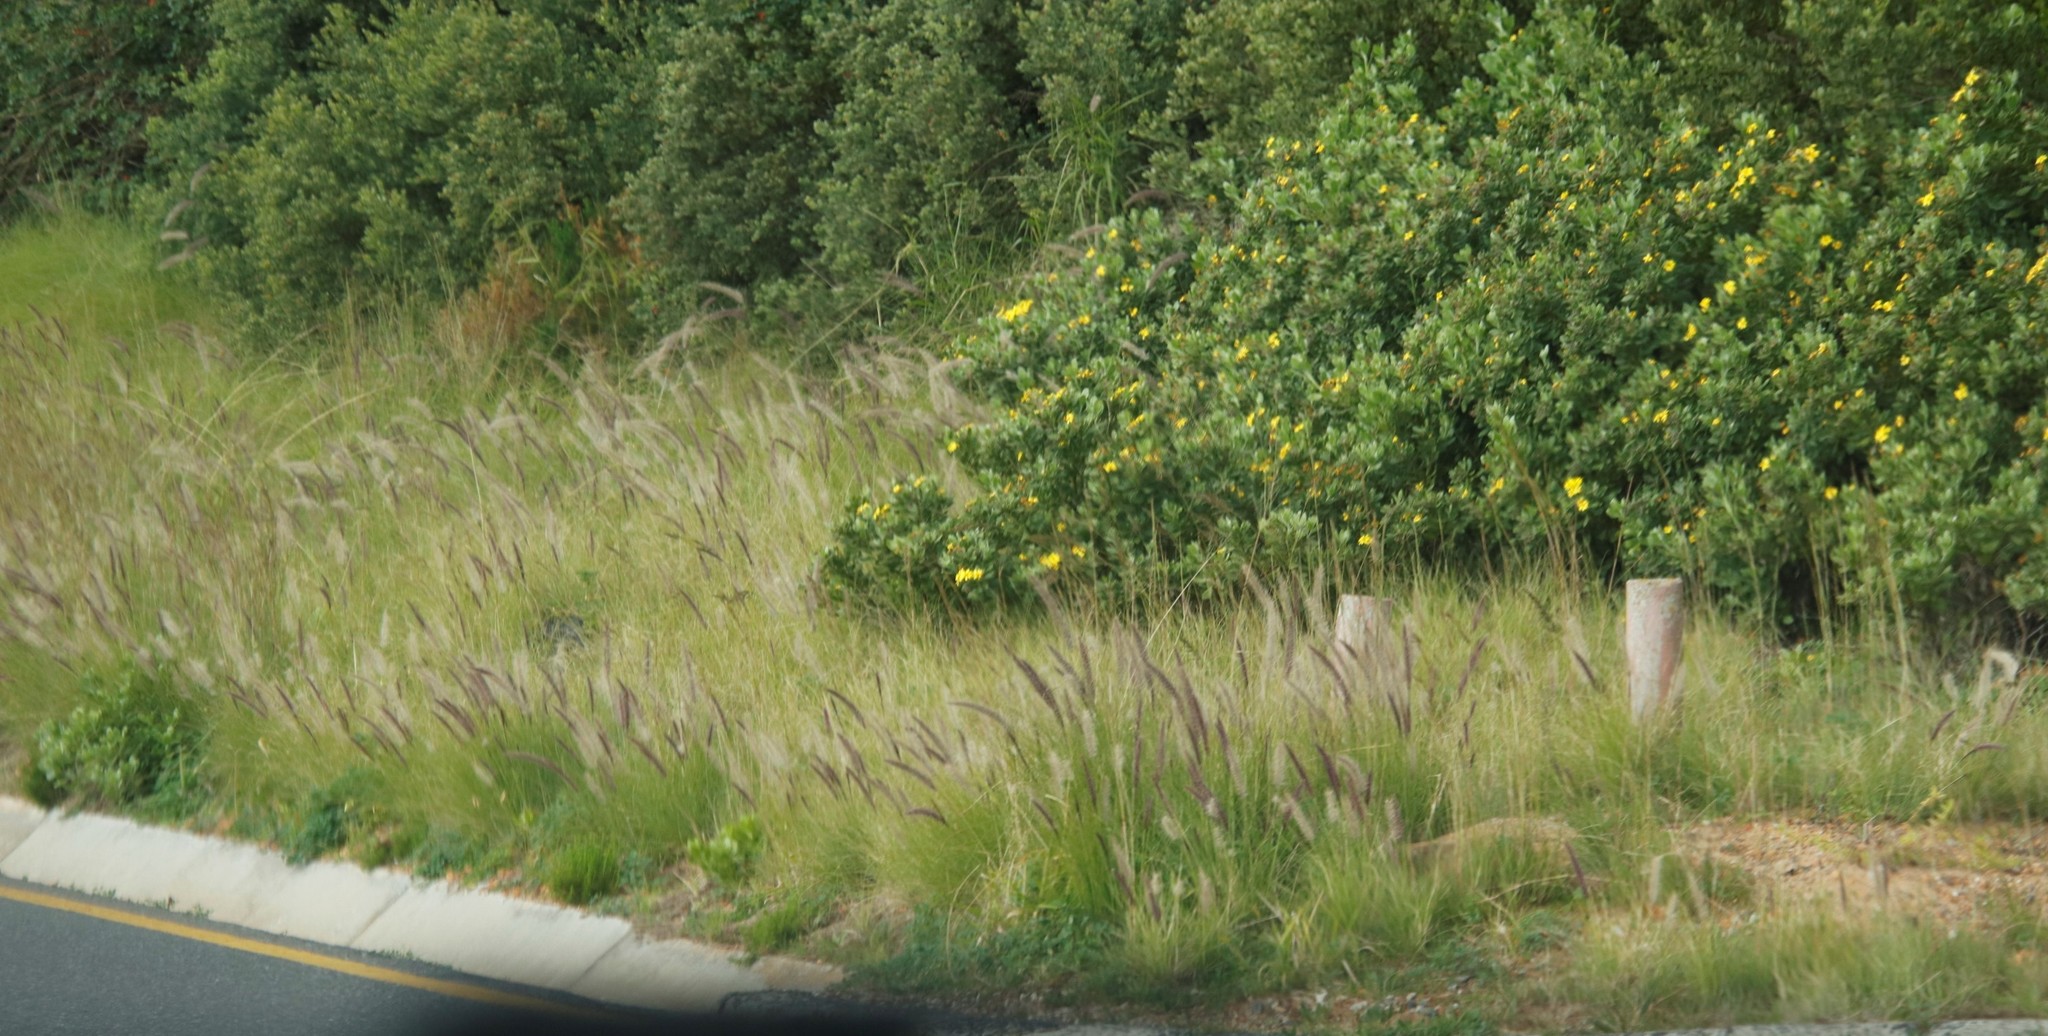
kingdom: Plantae
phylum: Tracheophyta
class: Magnoliopsida
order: Asterales
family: Asteraceae
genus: Osteospermum
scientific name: Osteospermum moniliferum
